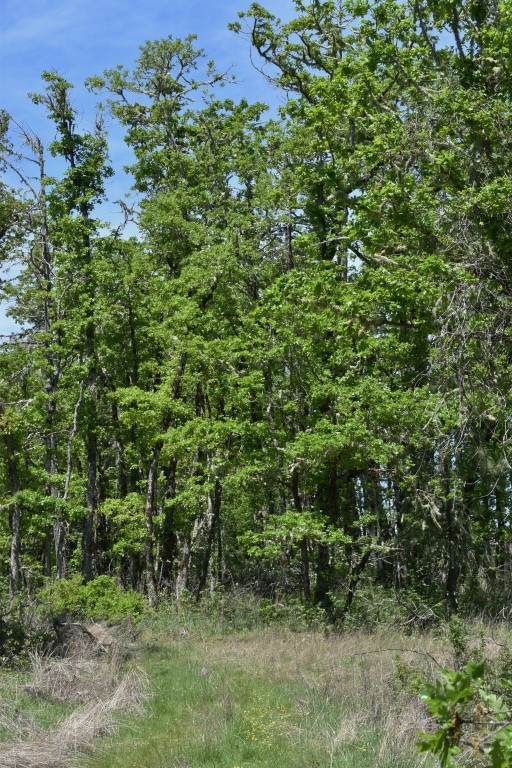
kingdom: Plantae
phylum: Tracheophyta
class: Magnoliopsida
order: Fagales
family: Fagaceae
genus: Quercus
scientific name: Quercus garryana
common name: Garry oak
